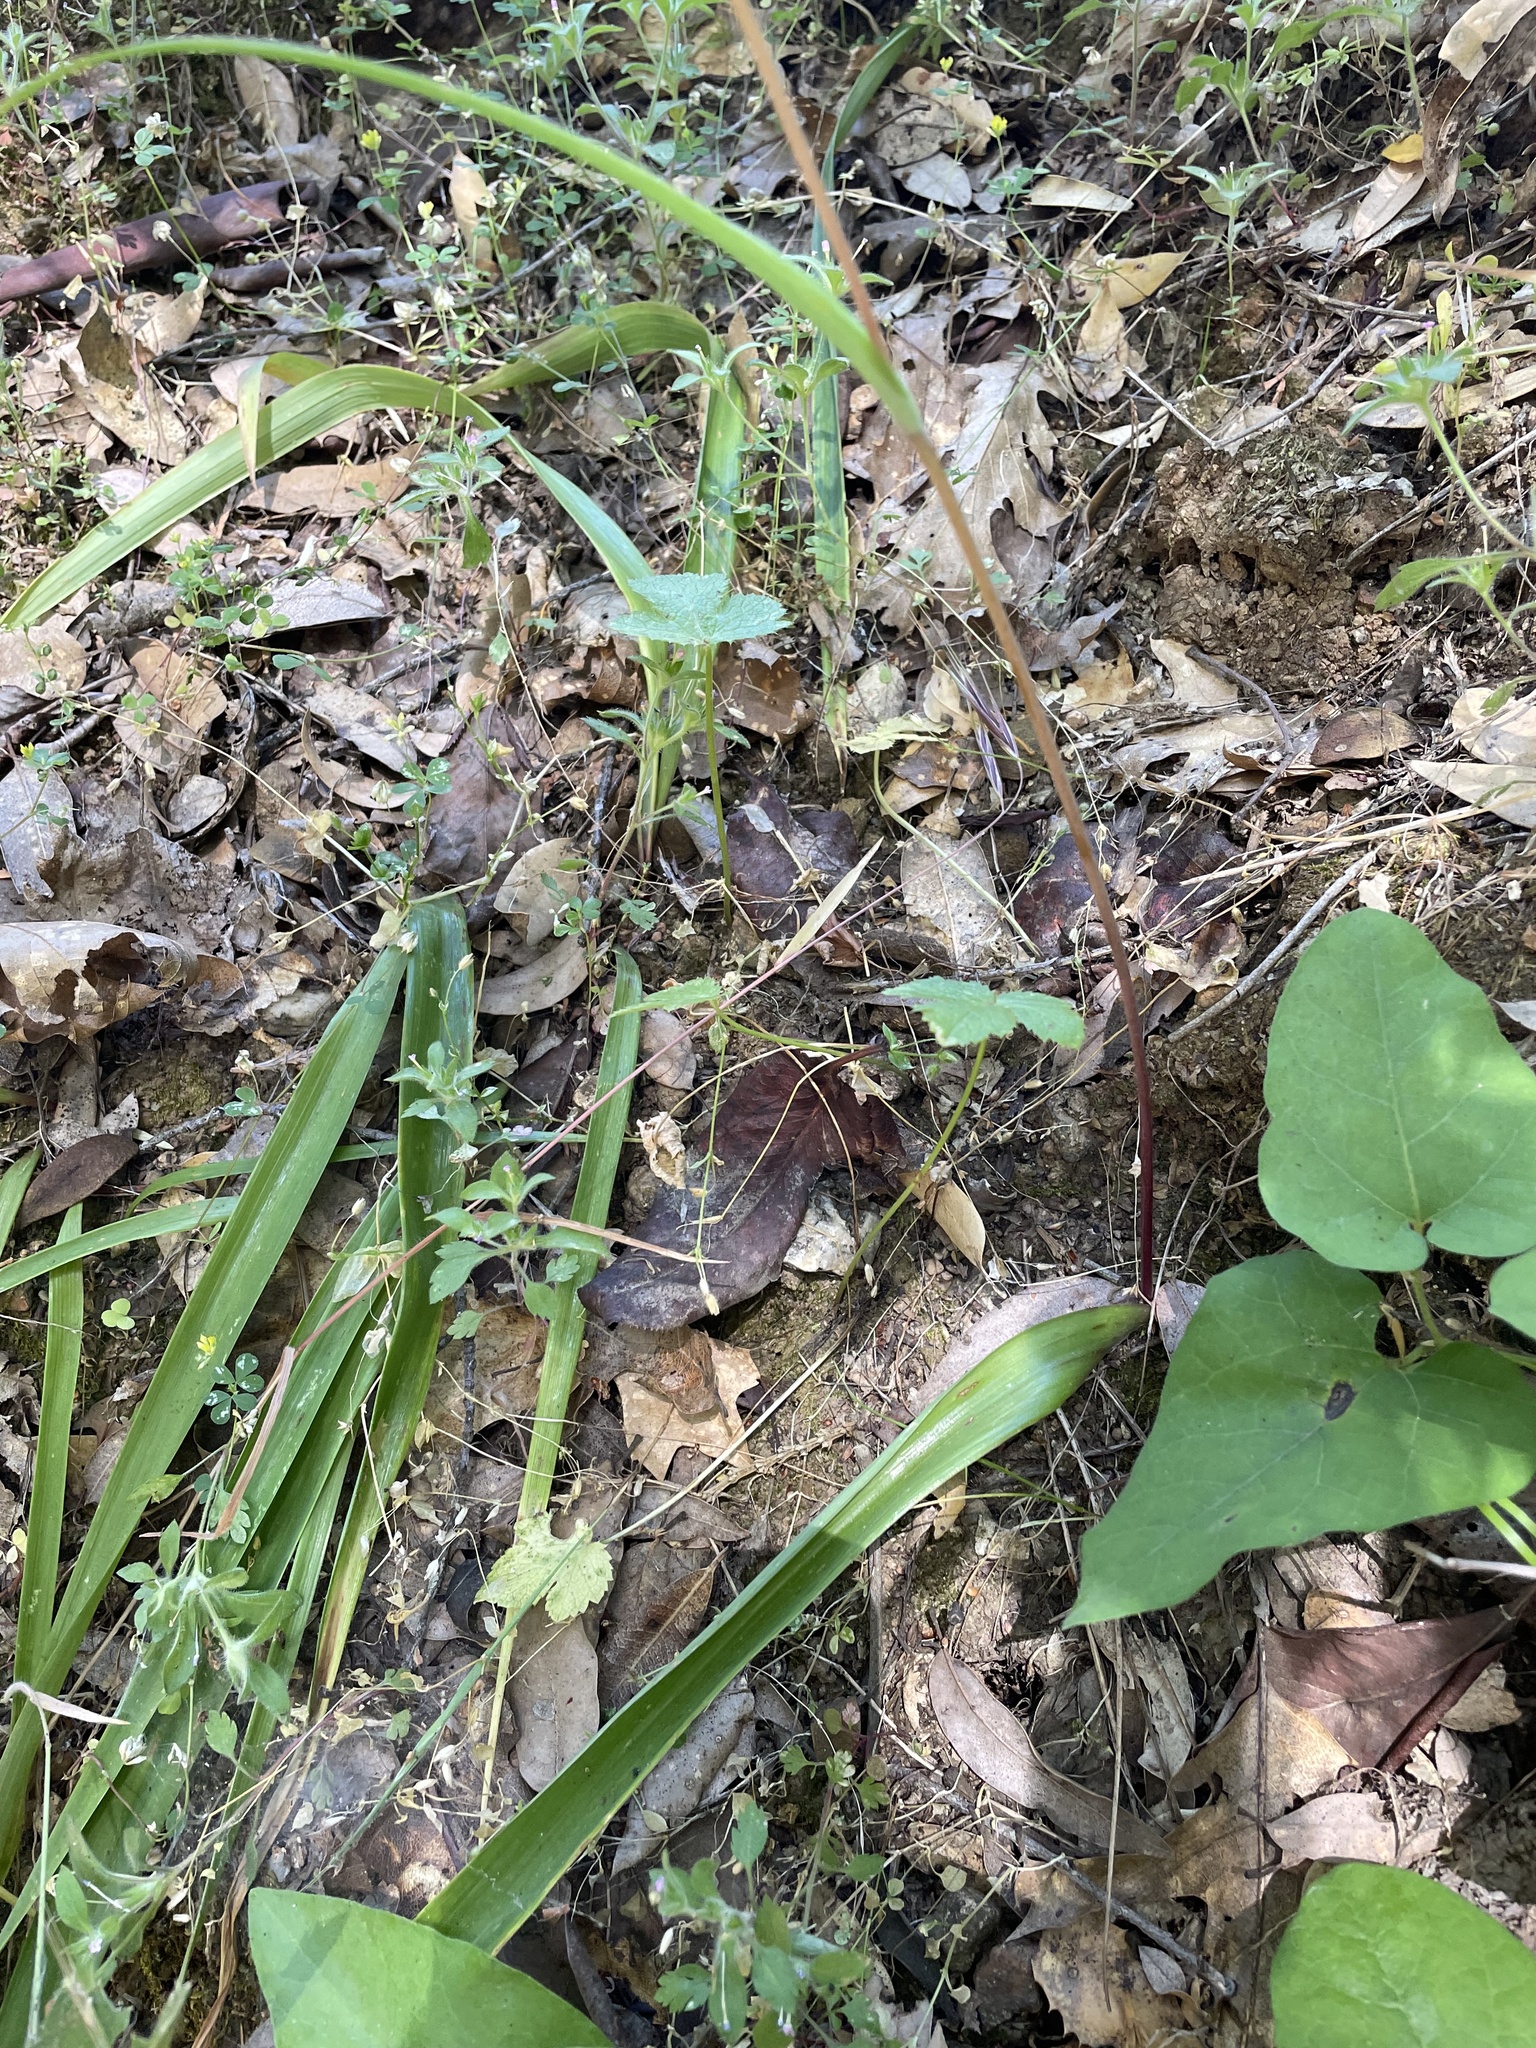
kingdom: Plantae
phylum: Tracheophyta
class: Liliopsida
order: Liliales
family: Liliaceae
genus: Calochortus
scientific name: Calochortus albus
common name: Fairy-lantern
